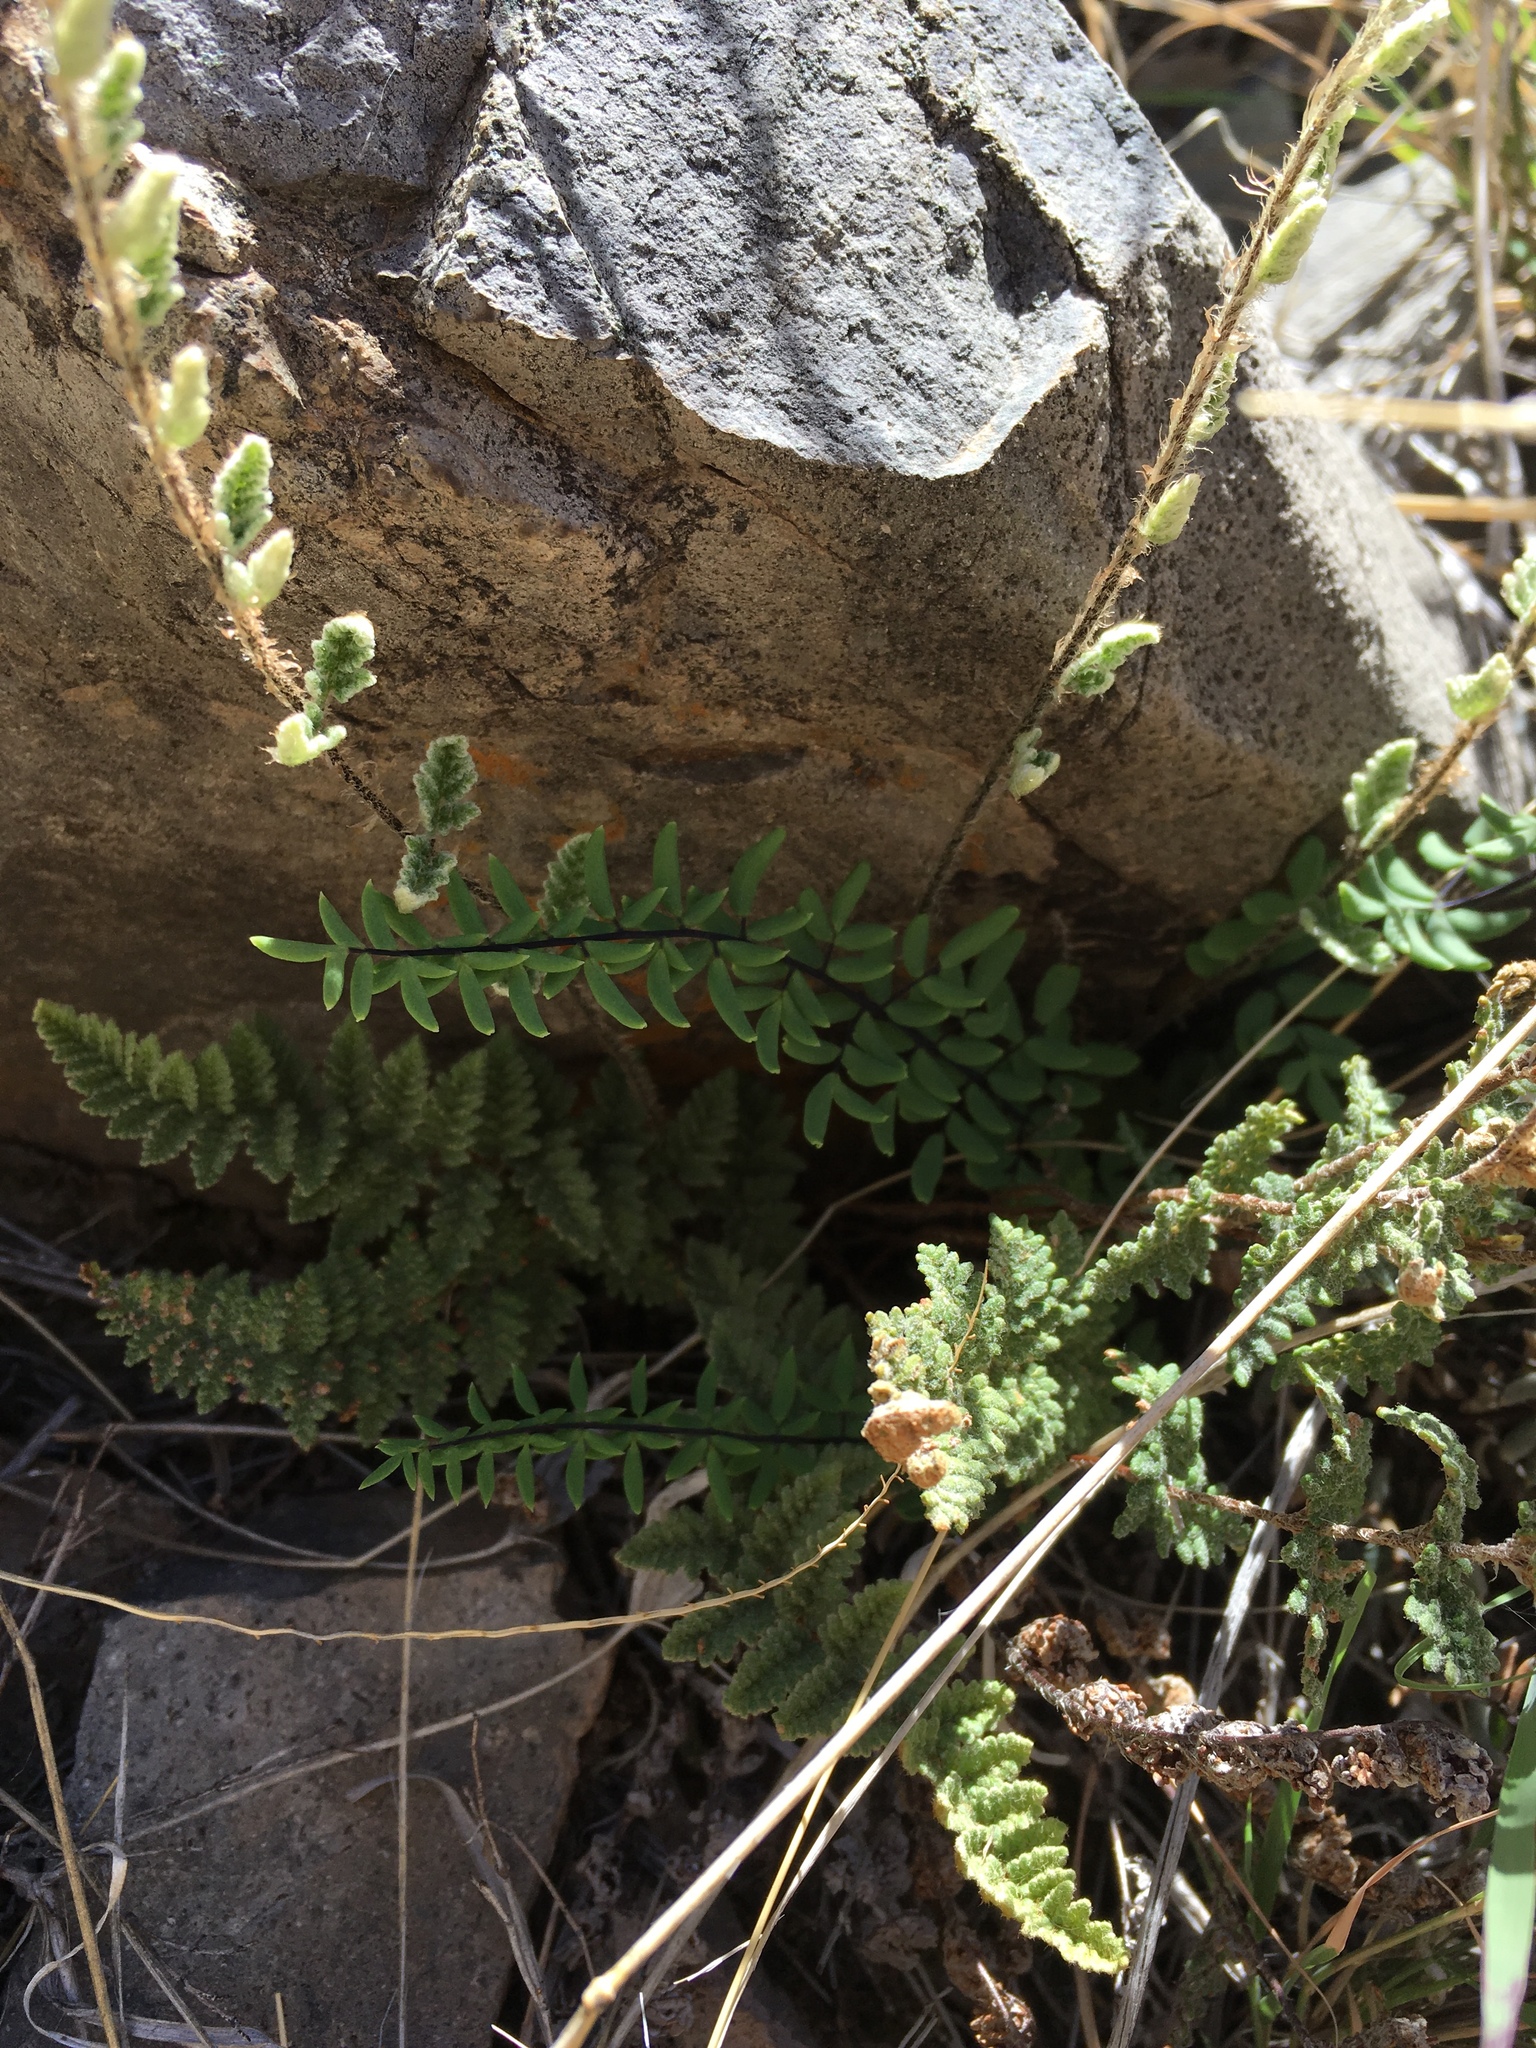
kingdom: Plantae
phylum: Tracheophyta
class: Polypodiopsida
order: Polypodiales
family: Pteridaceae
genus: Pellaea
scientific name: Pellaea wrightiana
